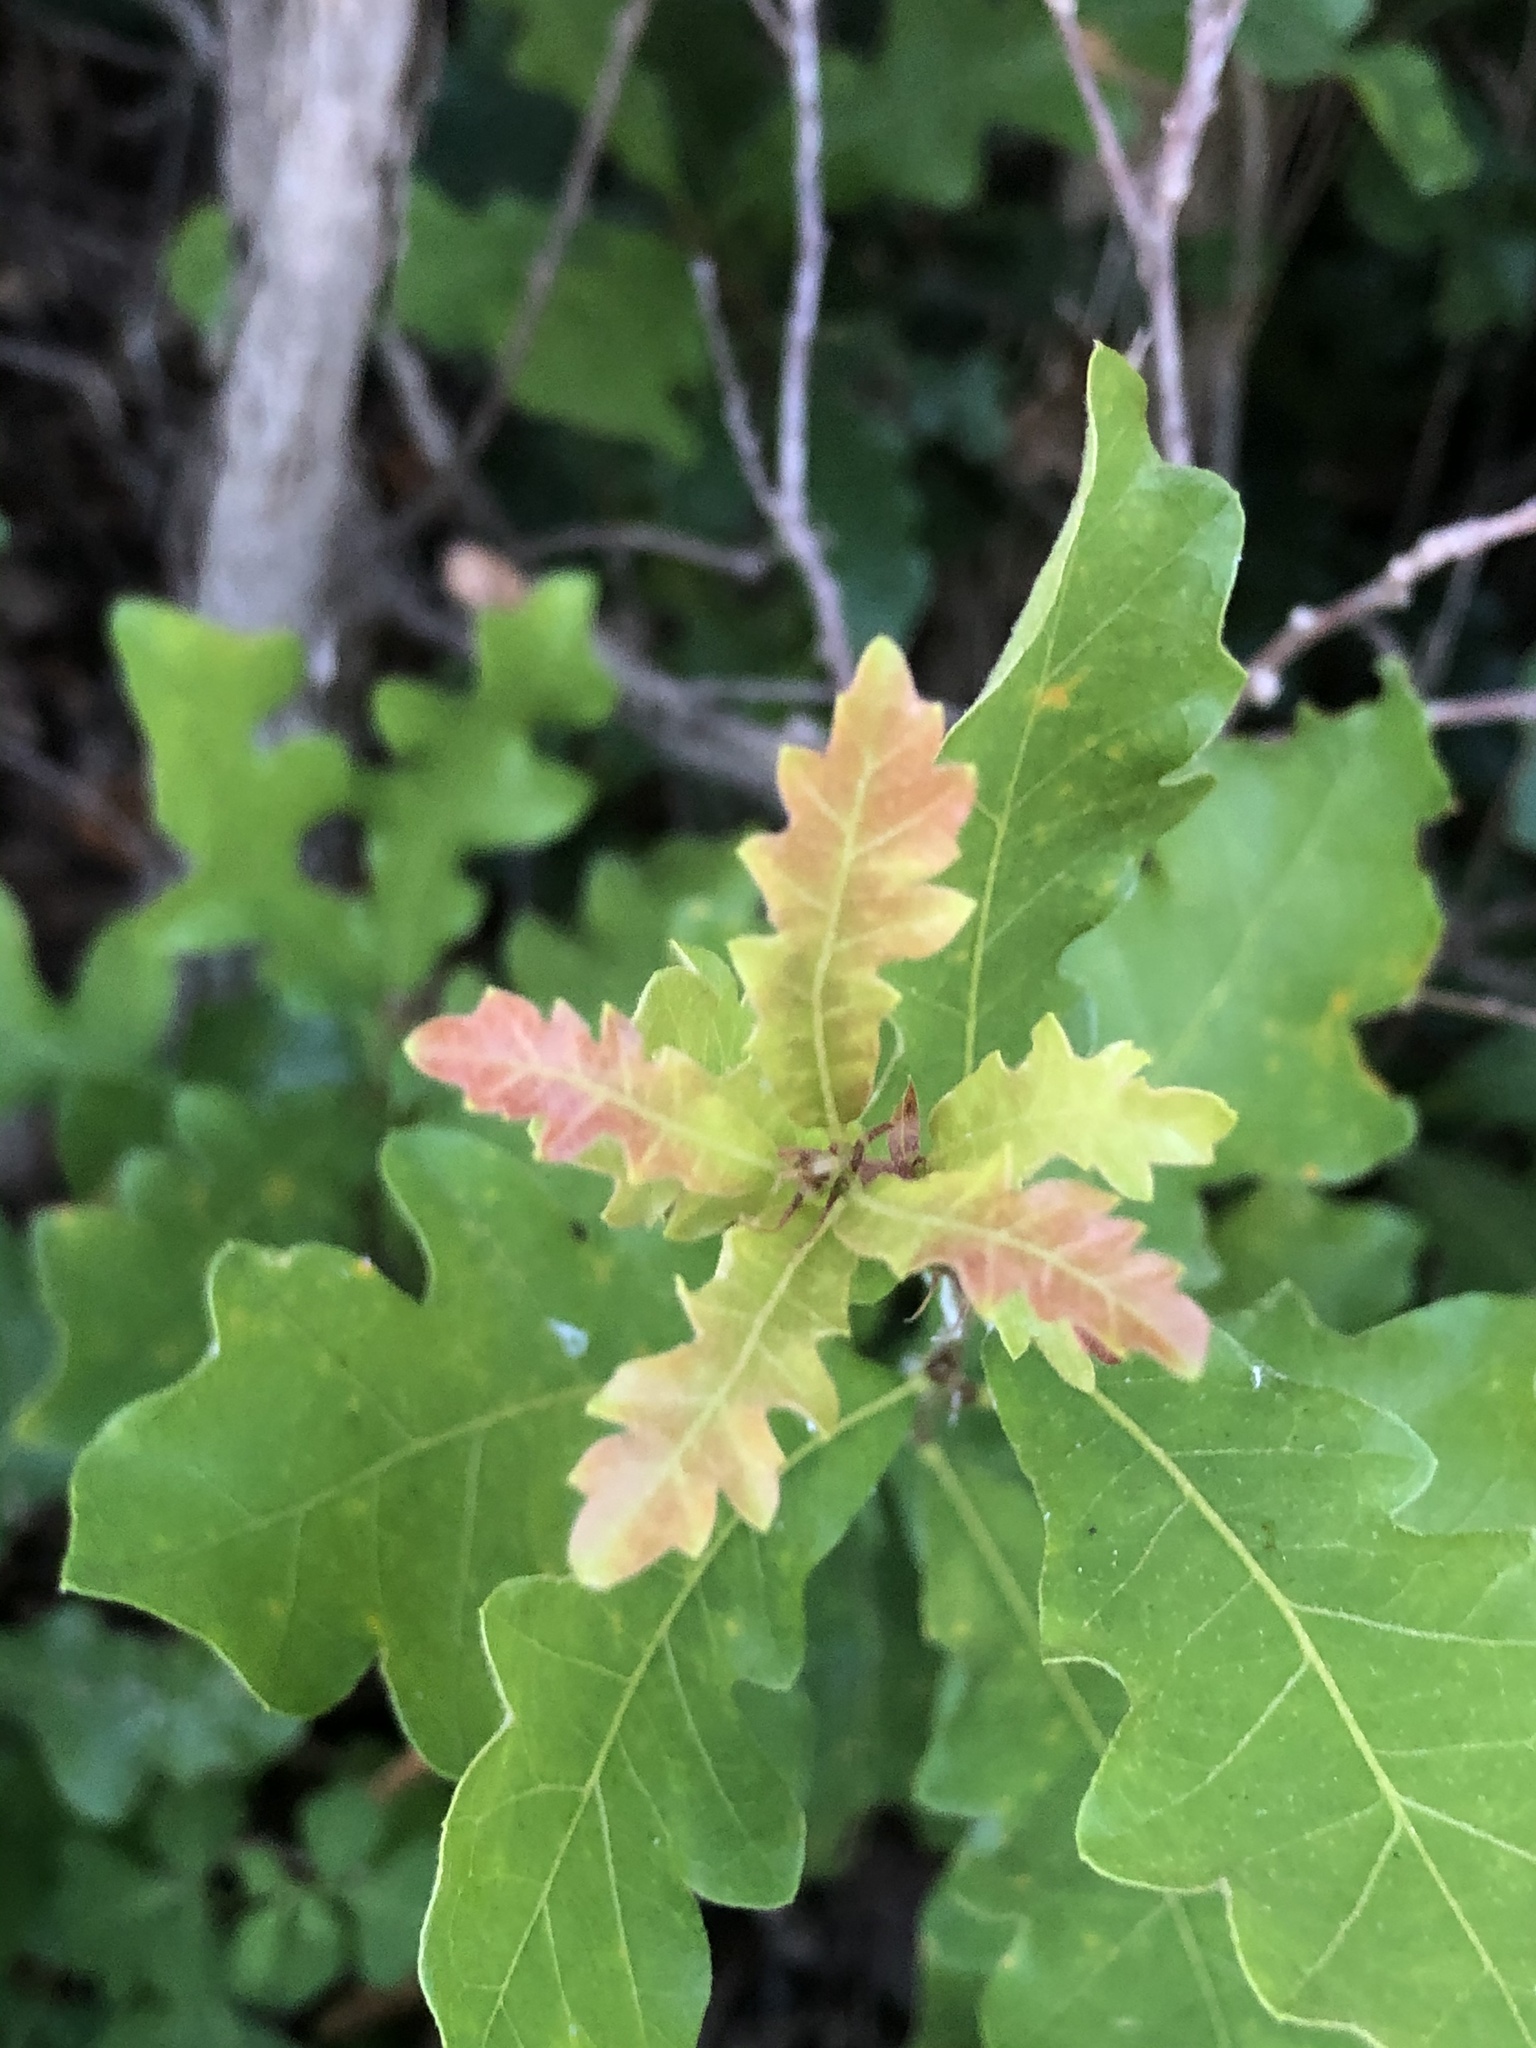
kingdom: Plantae
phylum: Tracheophyta
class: Magnoliopsida
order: Fagales
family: Fagaceae
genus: Quercus
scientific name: Quercus sinuata
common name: Durand oak
